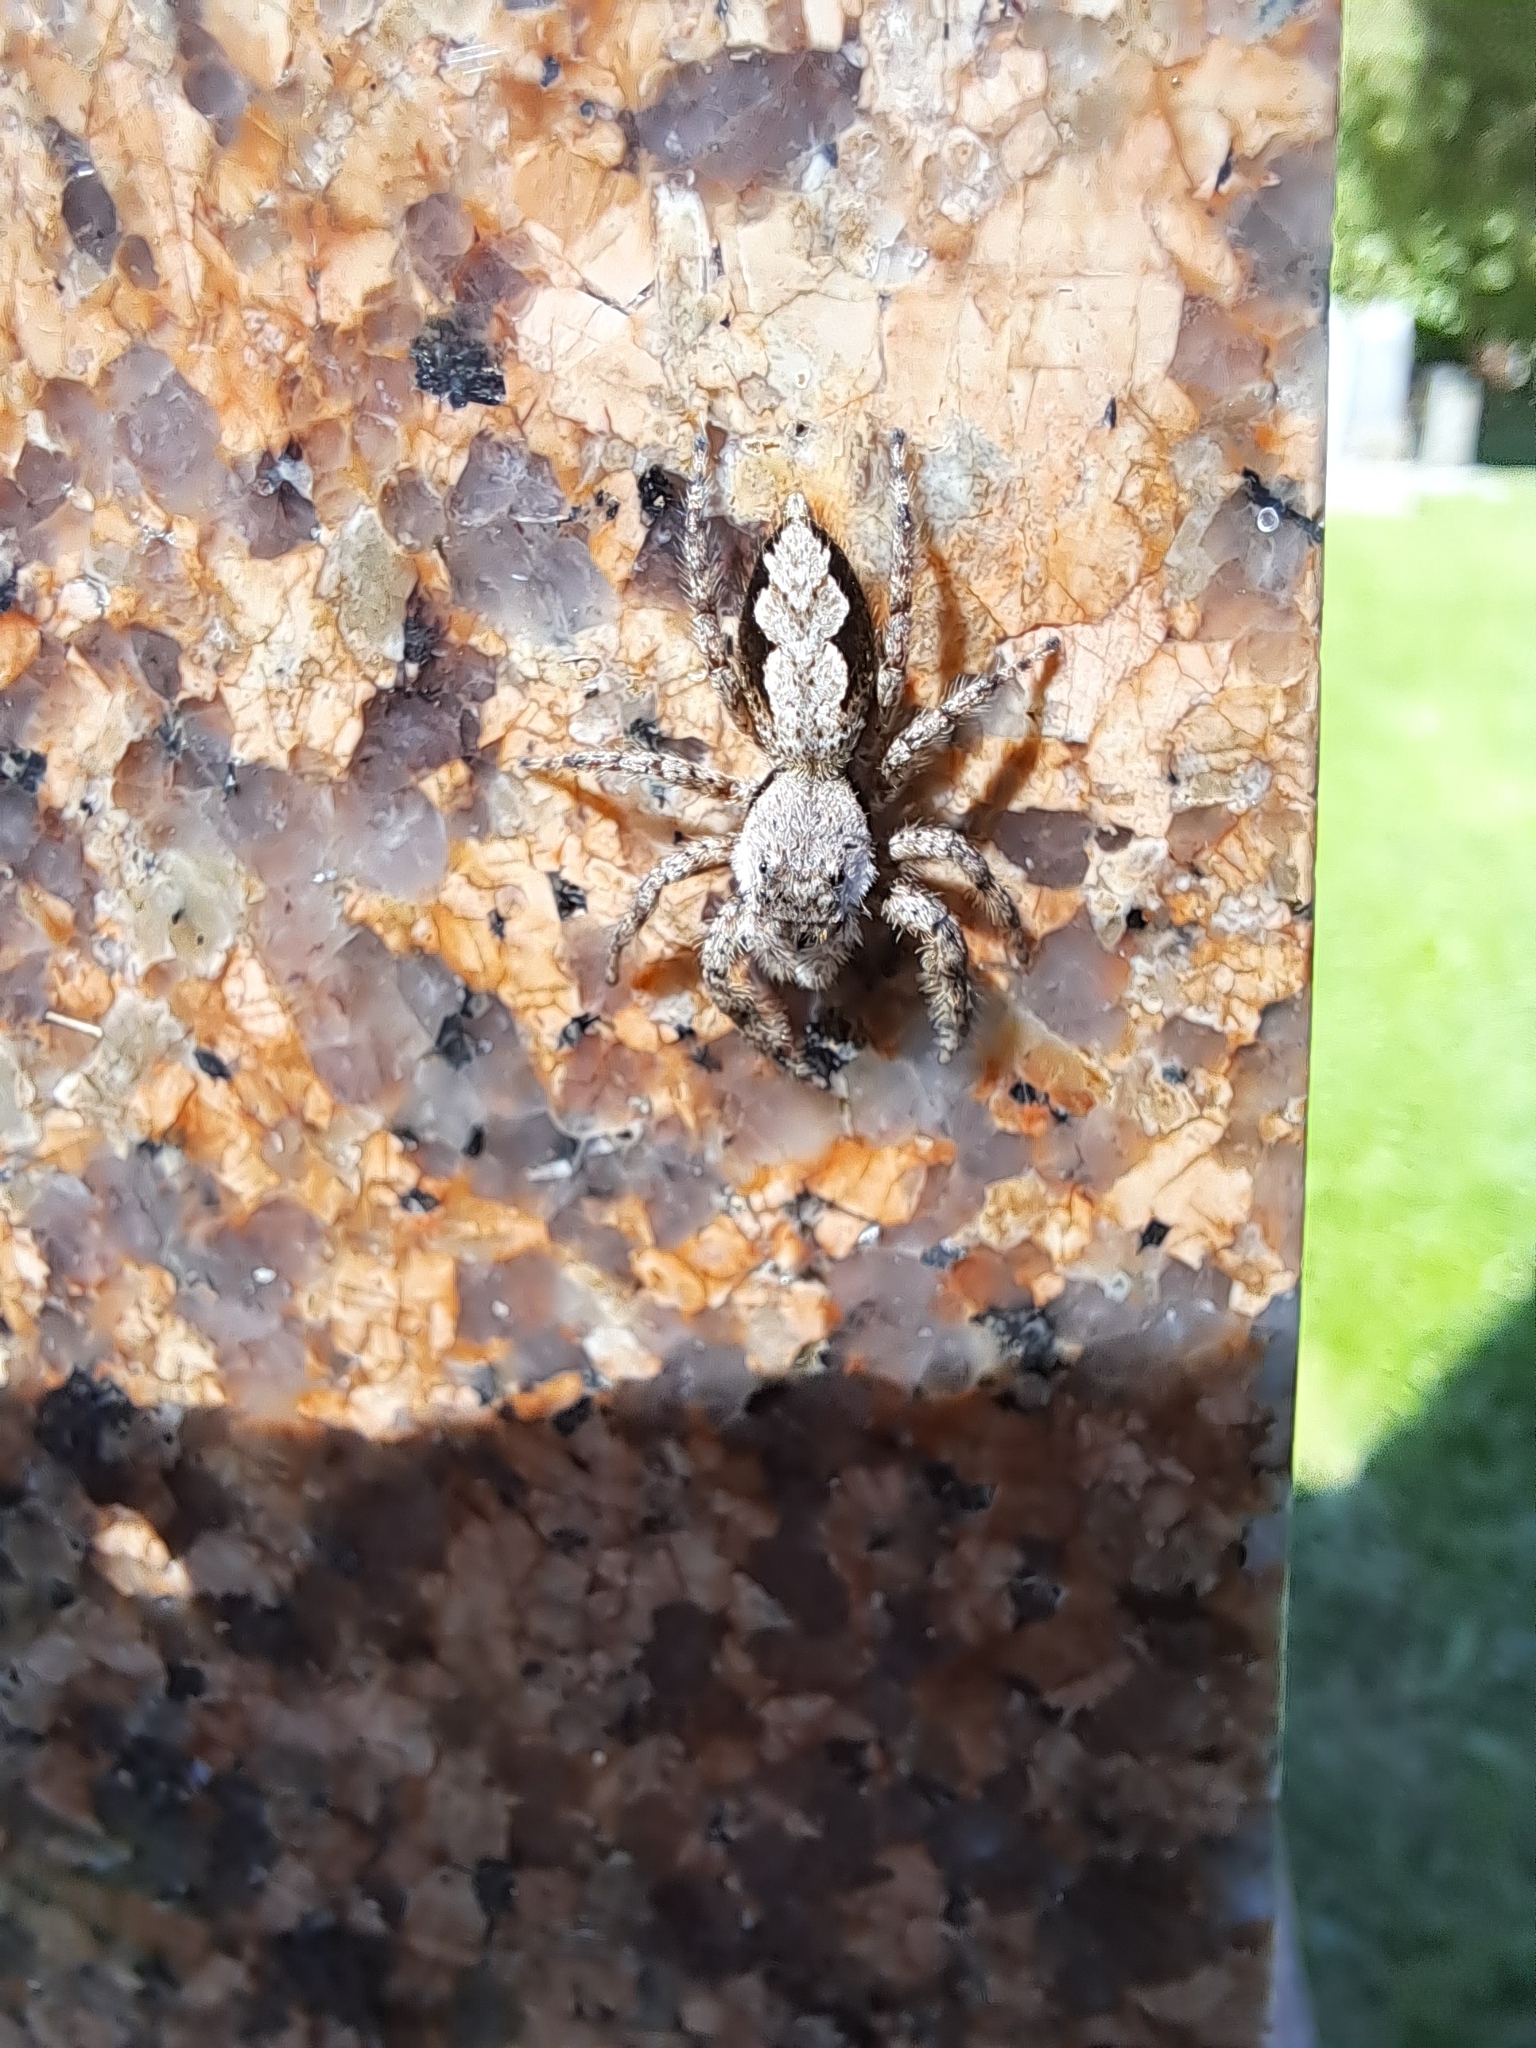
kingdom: Animalia
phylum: Arthropoda
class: Arachnida
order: Araneae
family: Salticidae
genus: Platycryptus
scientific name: Platycryptus undatus
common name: Tan jumping spider
